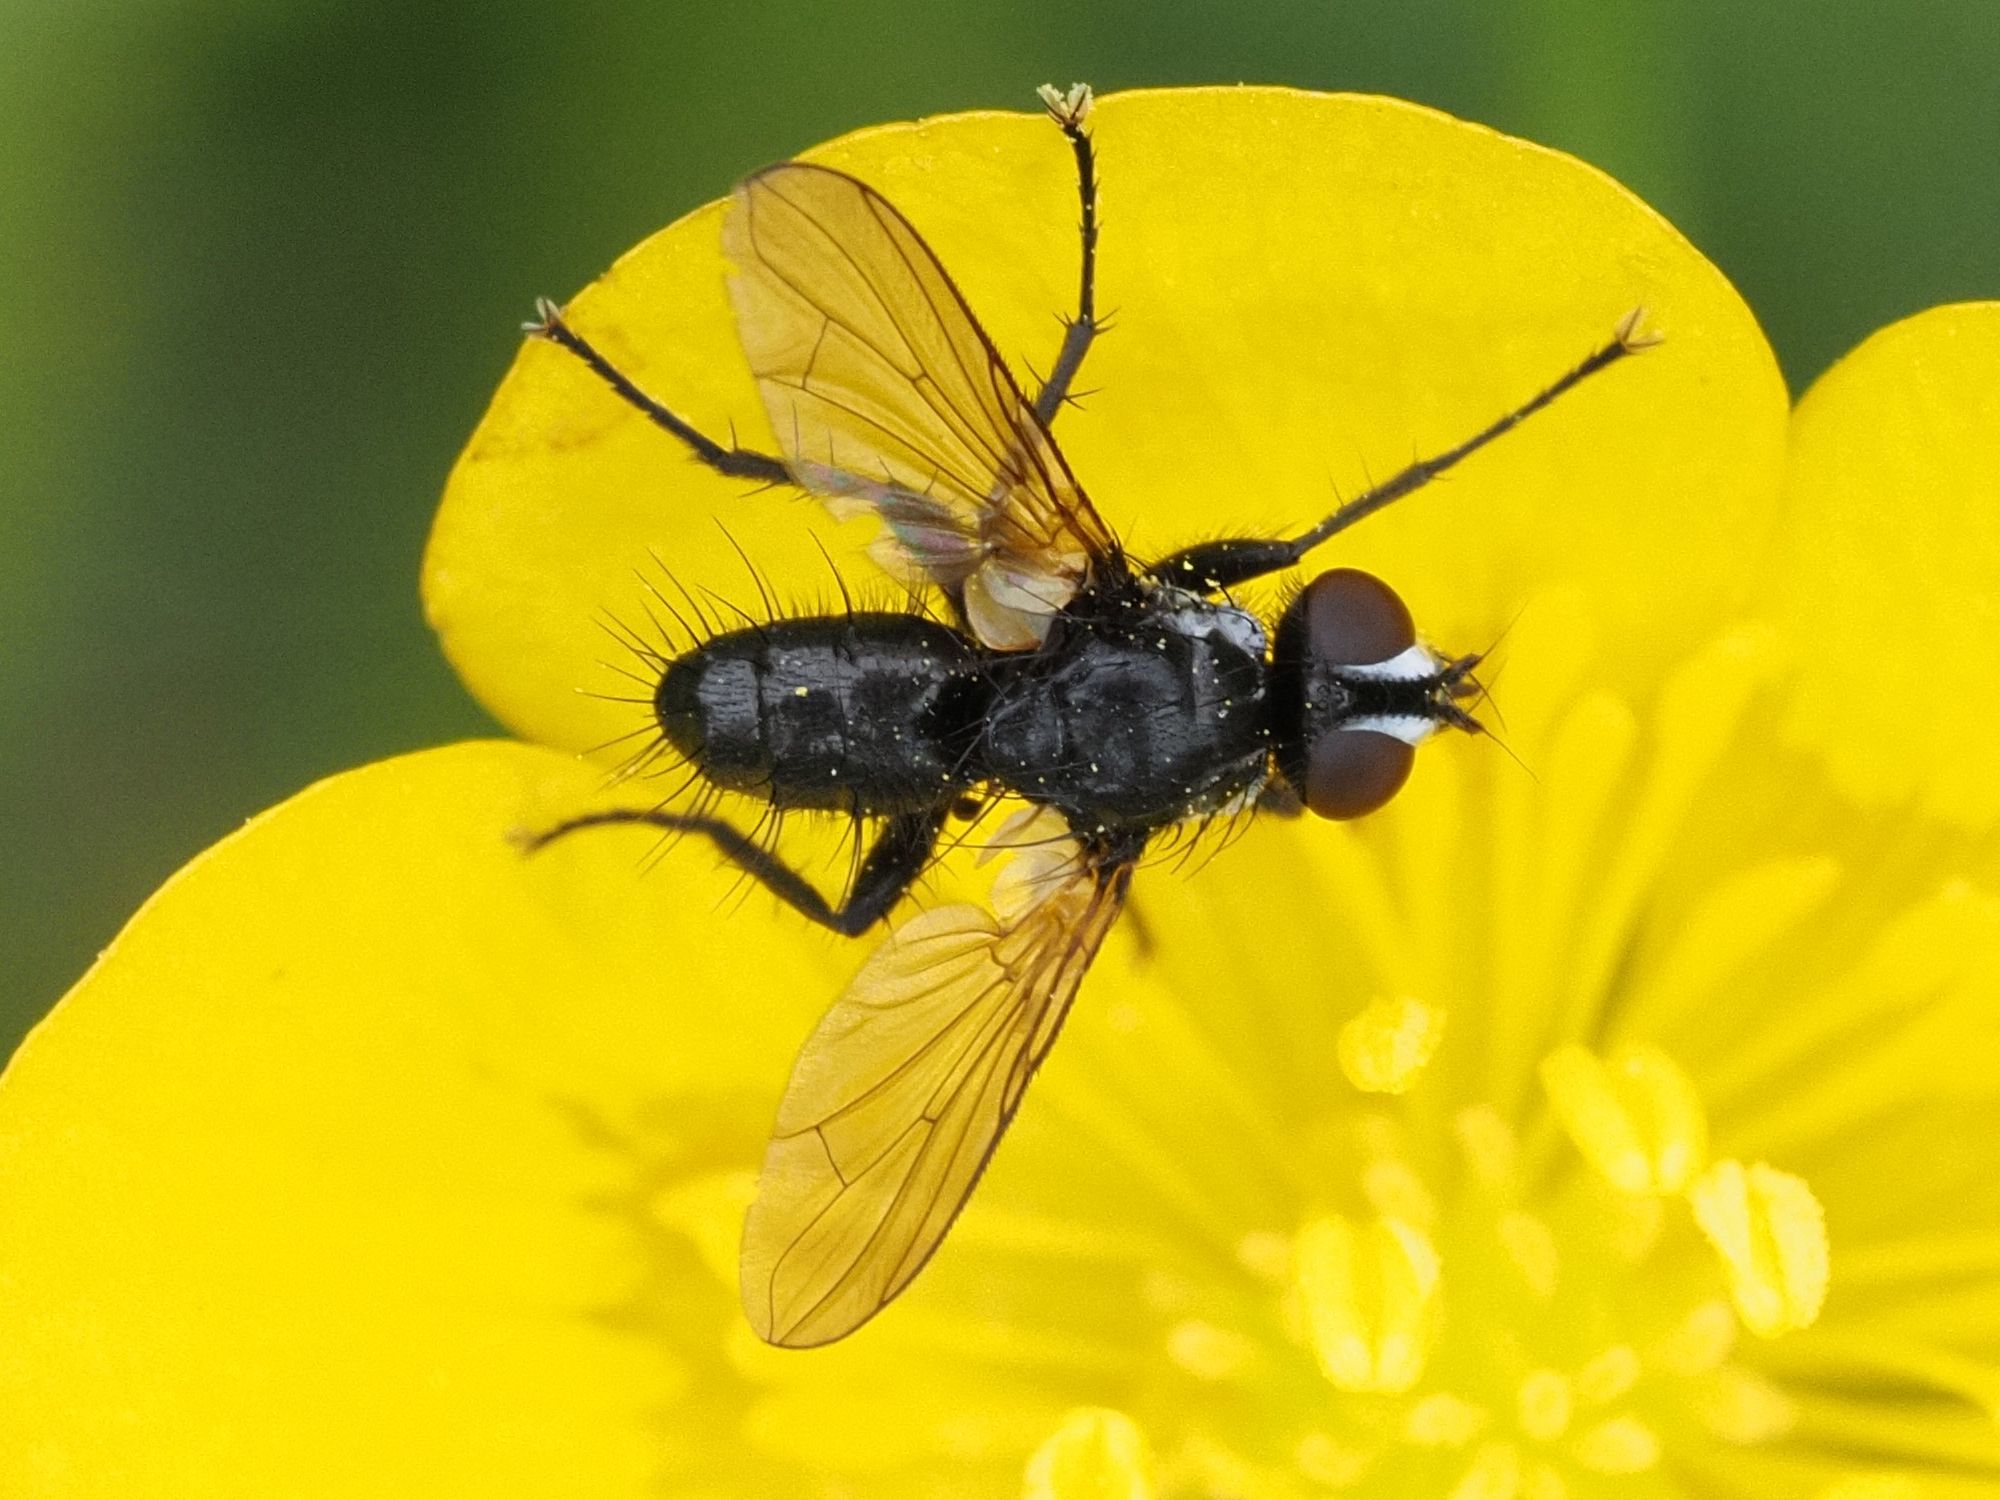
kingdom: Animalia
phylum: Arthropoda
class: Insecta
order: Diptera
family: Tachinidae
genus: Phania
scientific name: Phania funesta
